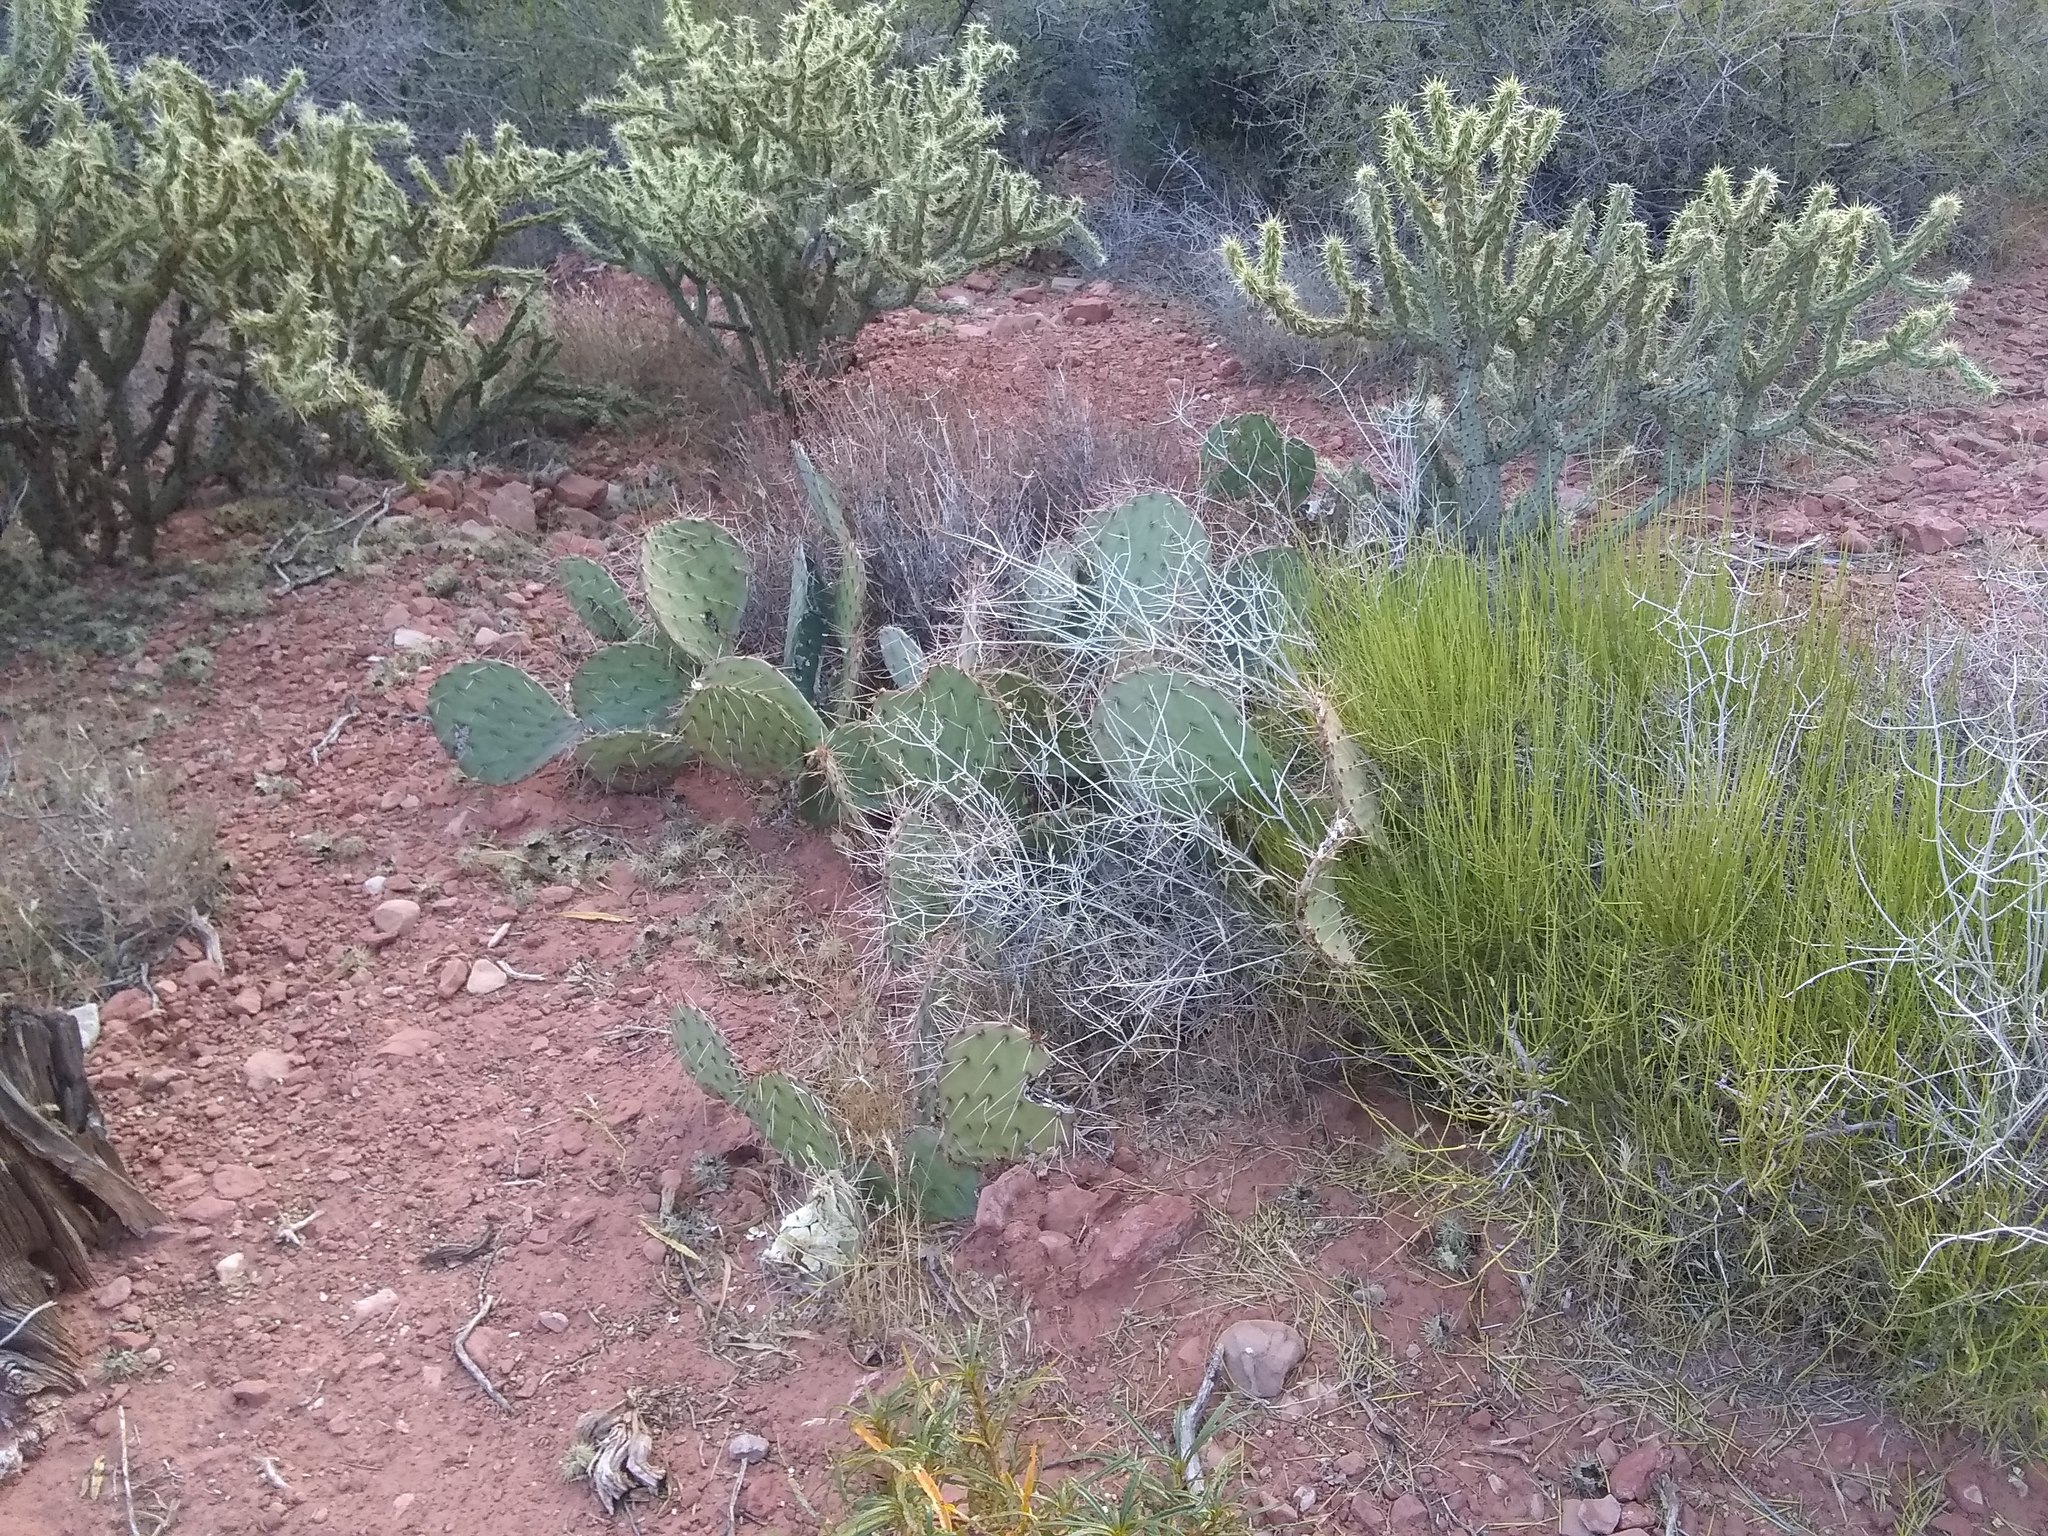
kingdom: Plantae
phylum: Tracheophyta
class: Magnoliopsida
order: Caryophyllales
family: Cactaceae
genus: Opuntia
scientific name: Opuntia phaeacantha
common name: New mexico prickly-pear
